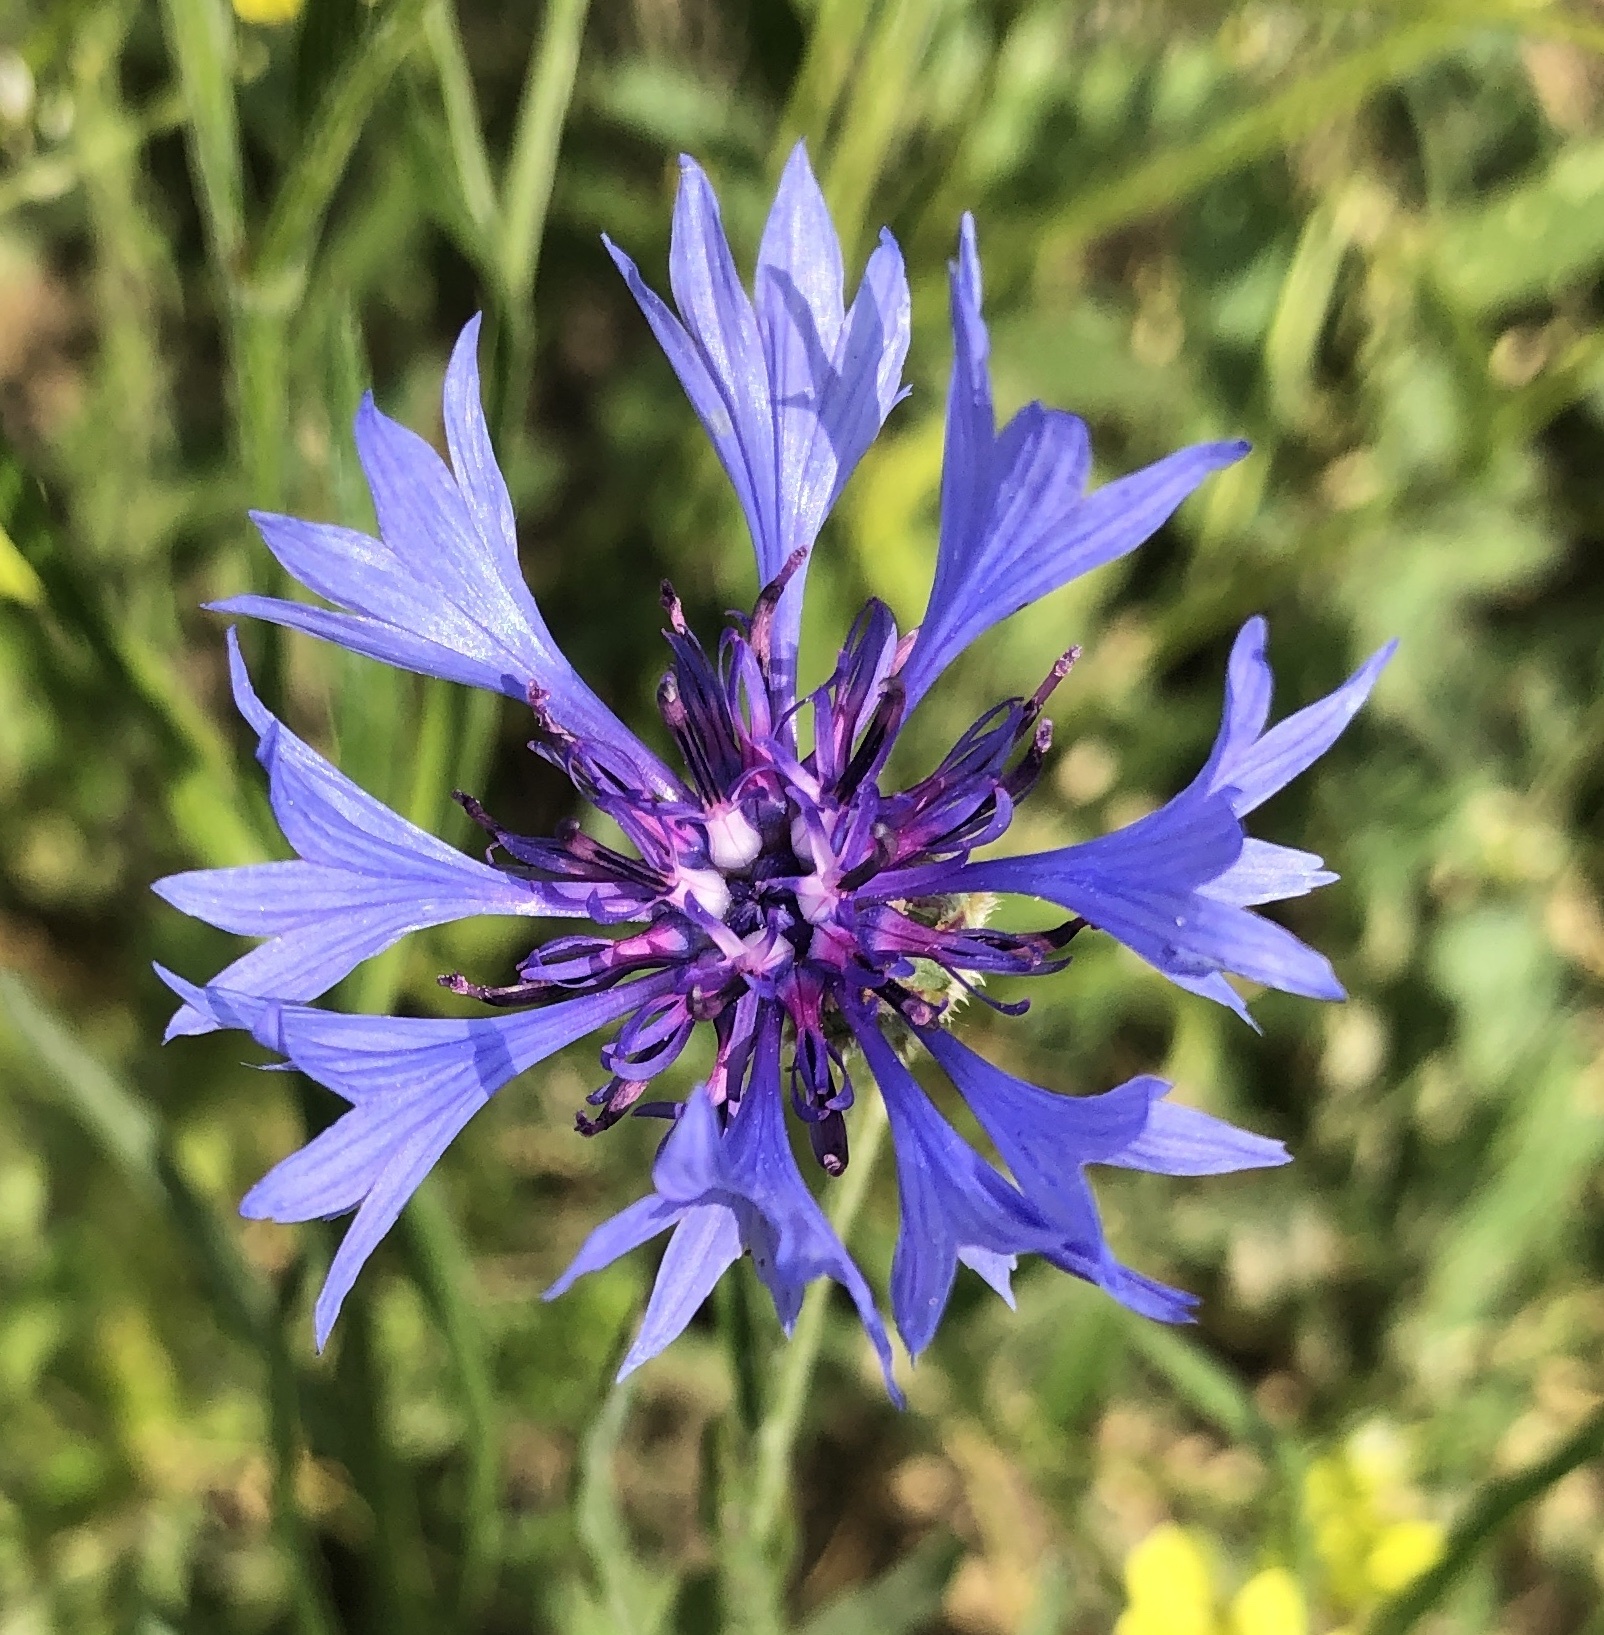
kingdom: Plantae
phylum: Tracheophyta
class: Magnoliopsida
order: Asterales
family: Asteraceae
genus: Centaurea
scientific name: Centaurea cyanus
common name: Cornflower
